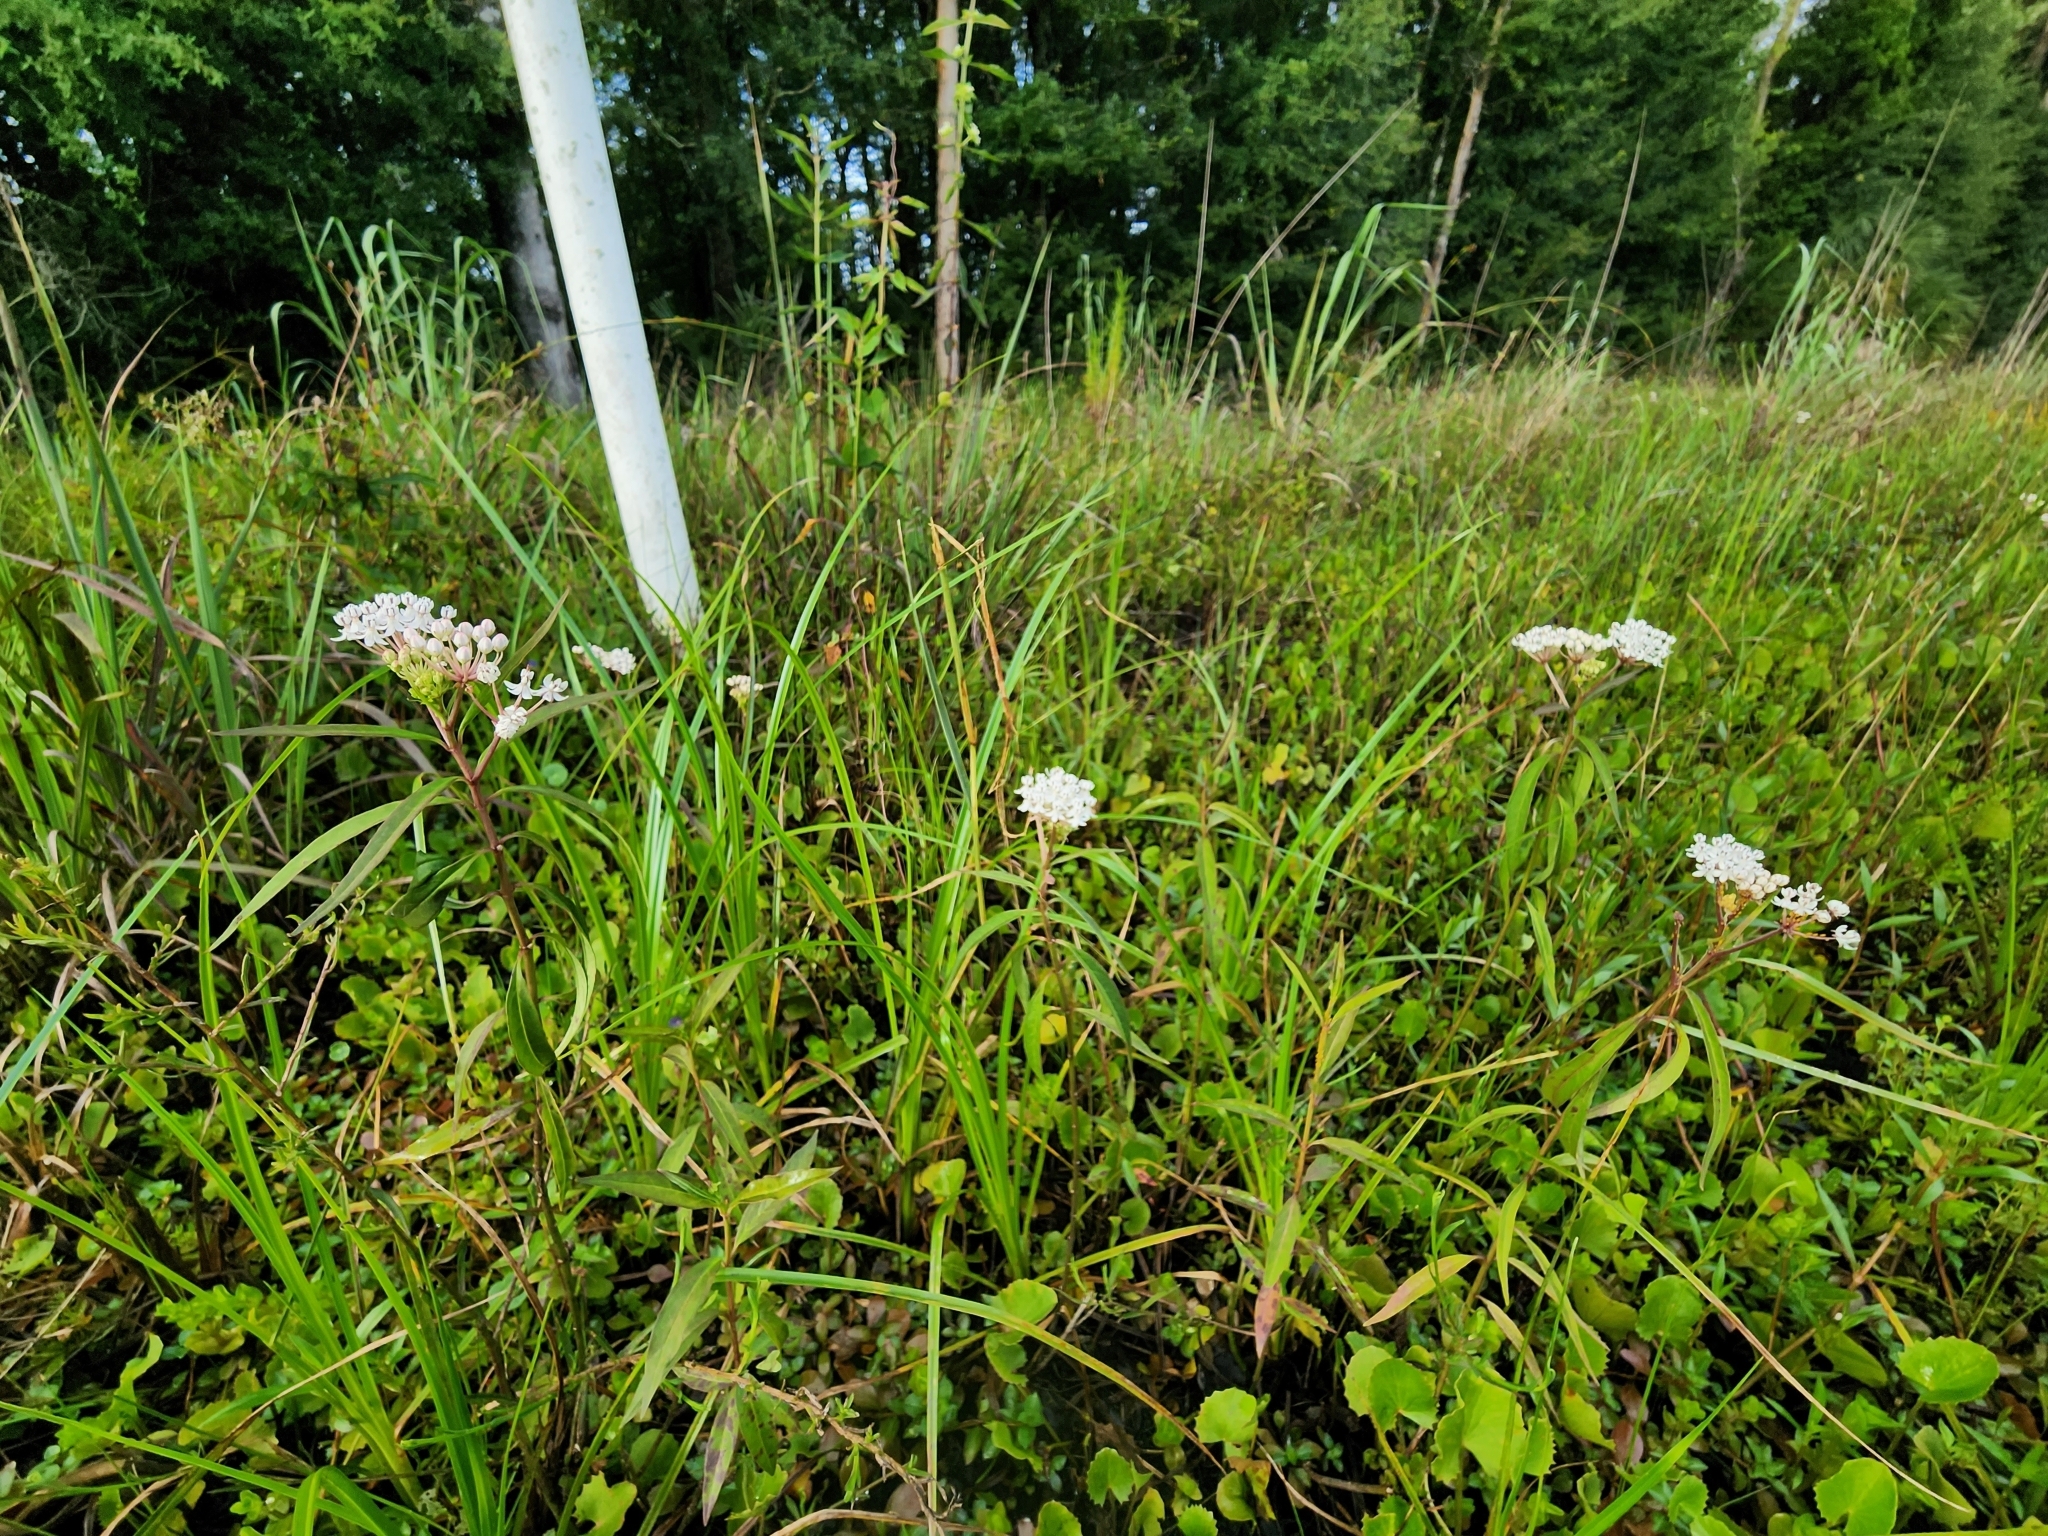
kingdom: Plantae
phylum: Tracheophyta
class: Magnoliopsida
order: Gentianales
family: Apocynaceae
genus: Asclepias
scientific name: Asclepias perennis
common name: Smooth-seed milkweed
